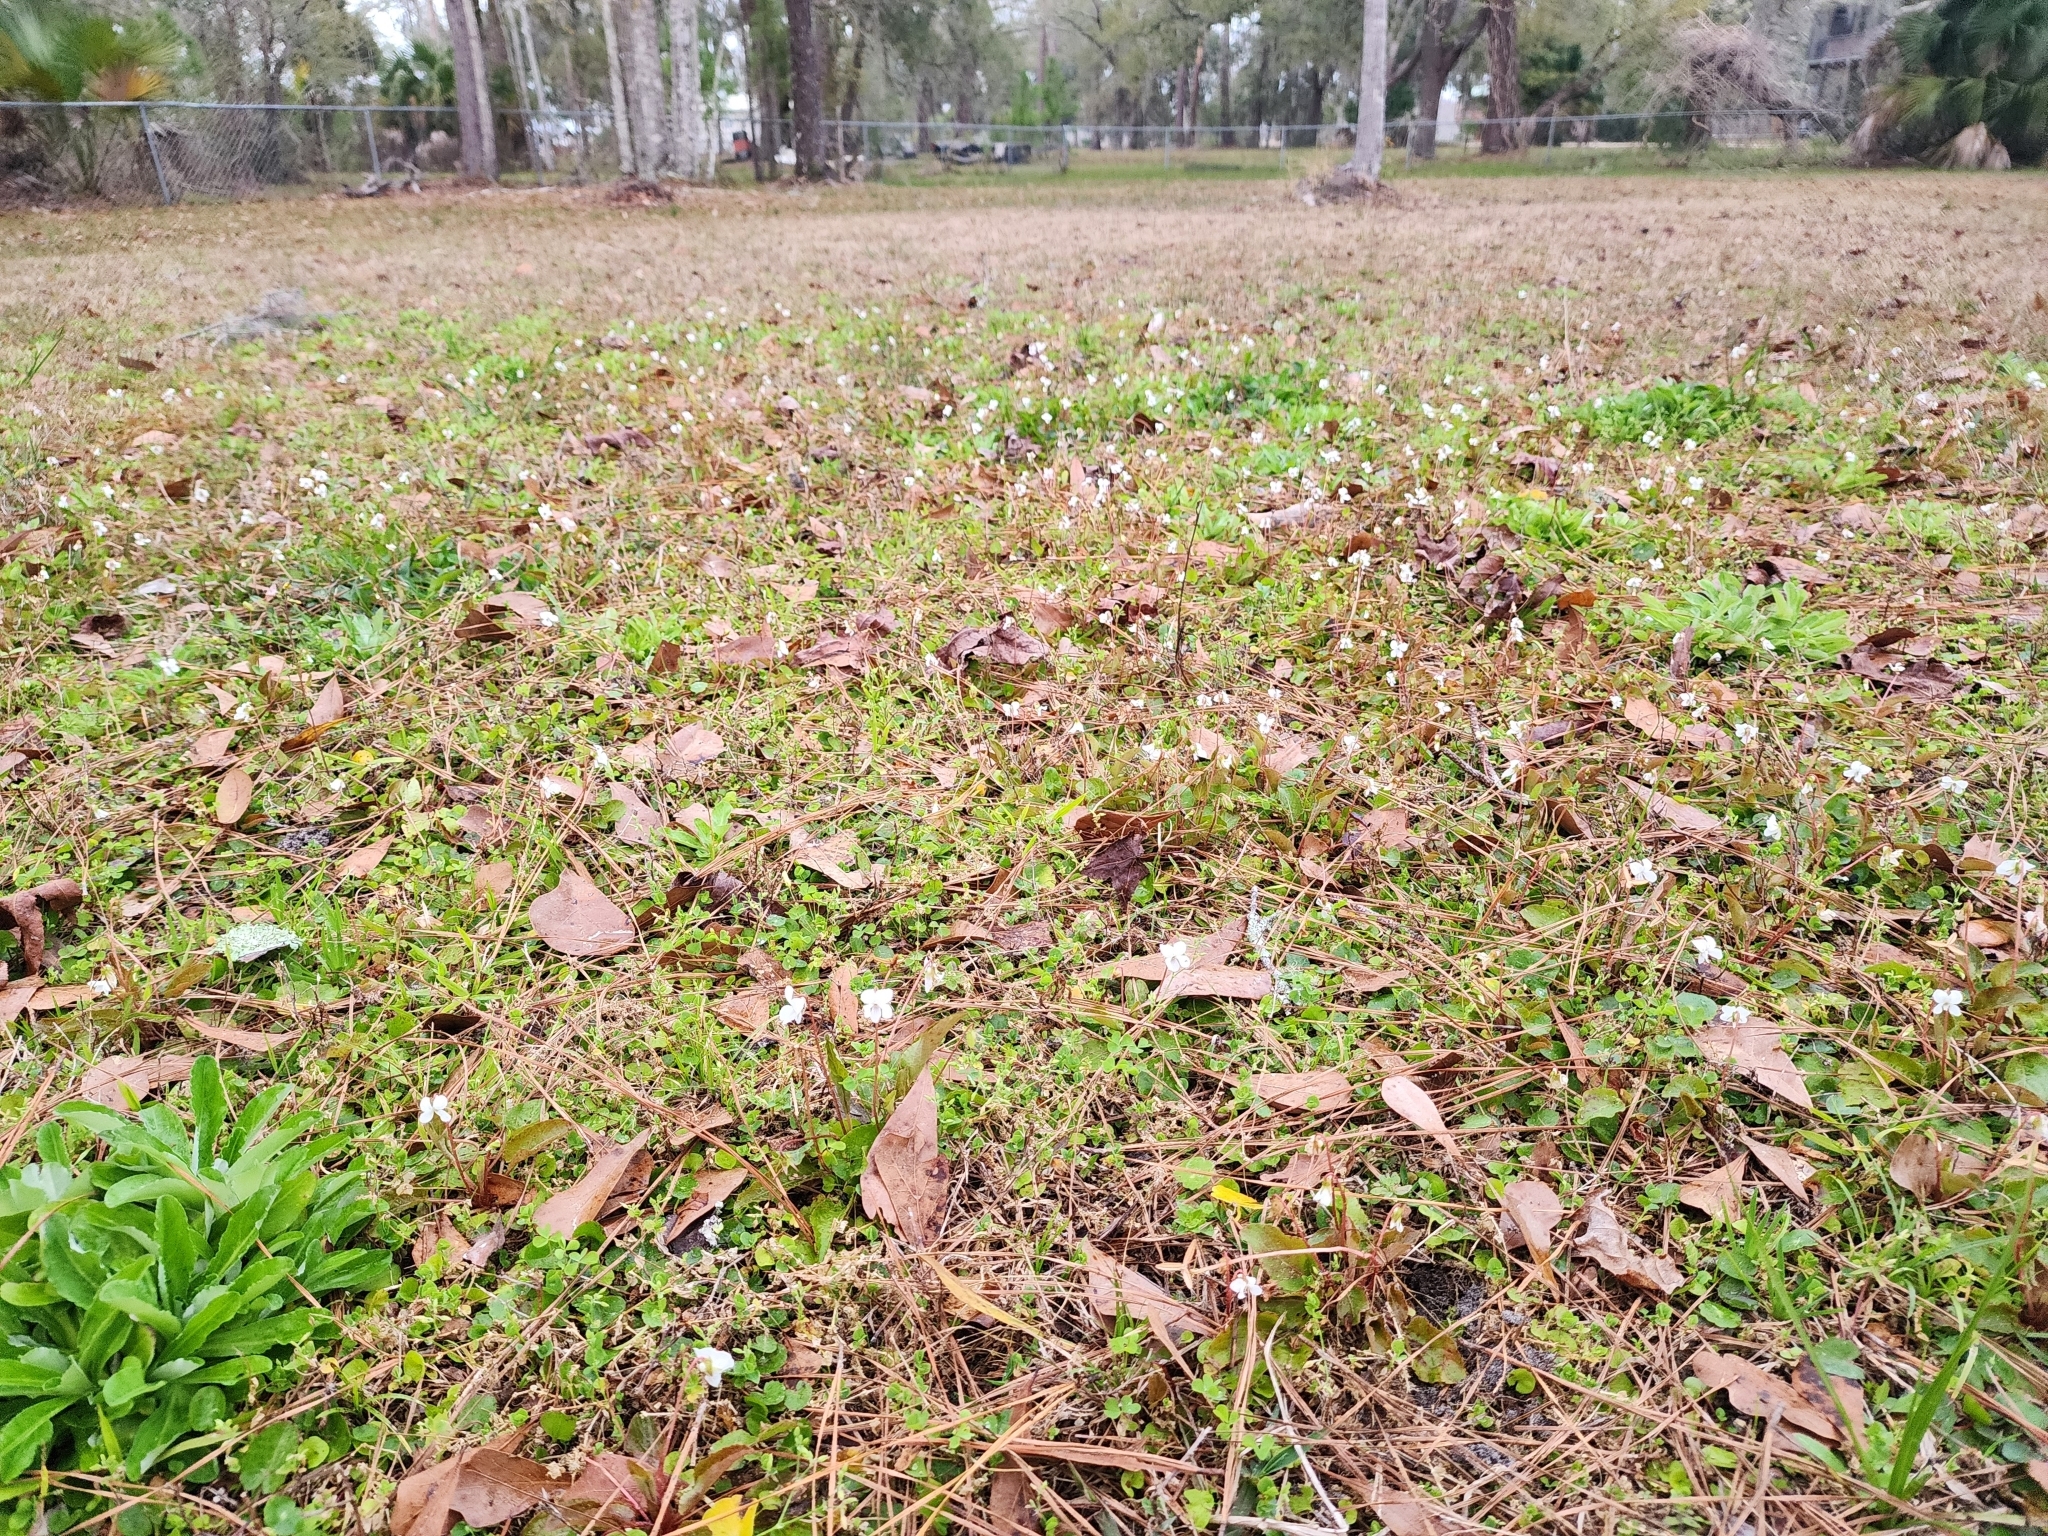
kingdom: Plantae
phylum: Tracheophyta
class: Magnoliopsida
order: Malpighiales
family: Violaceae
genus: Viola
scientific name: Viola primulifolia
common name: Primrose-leaf violet
